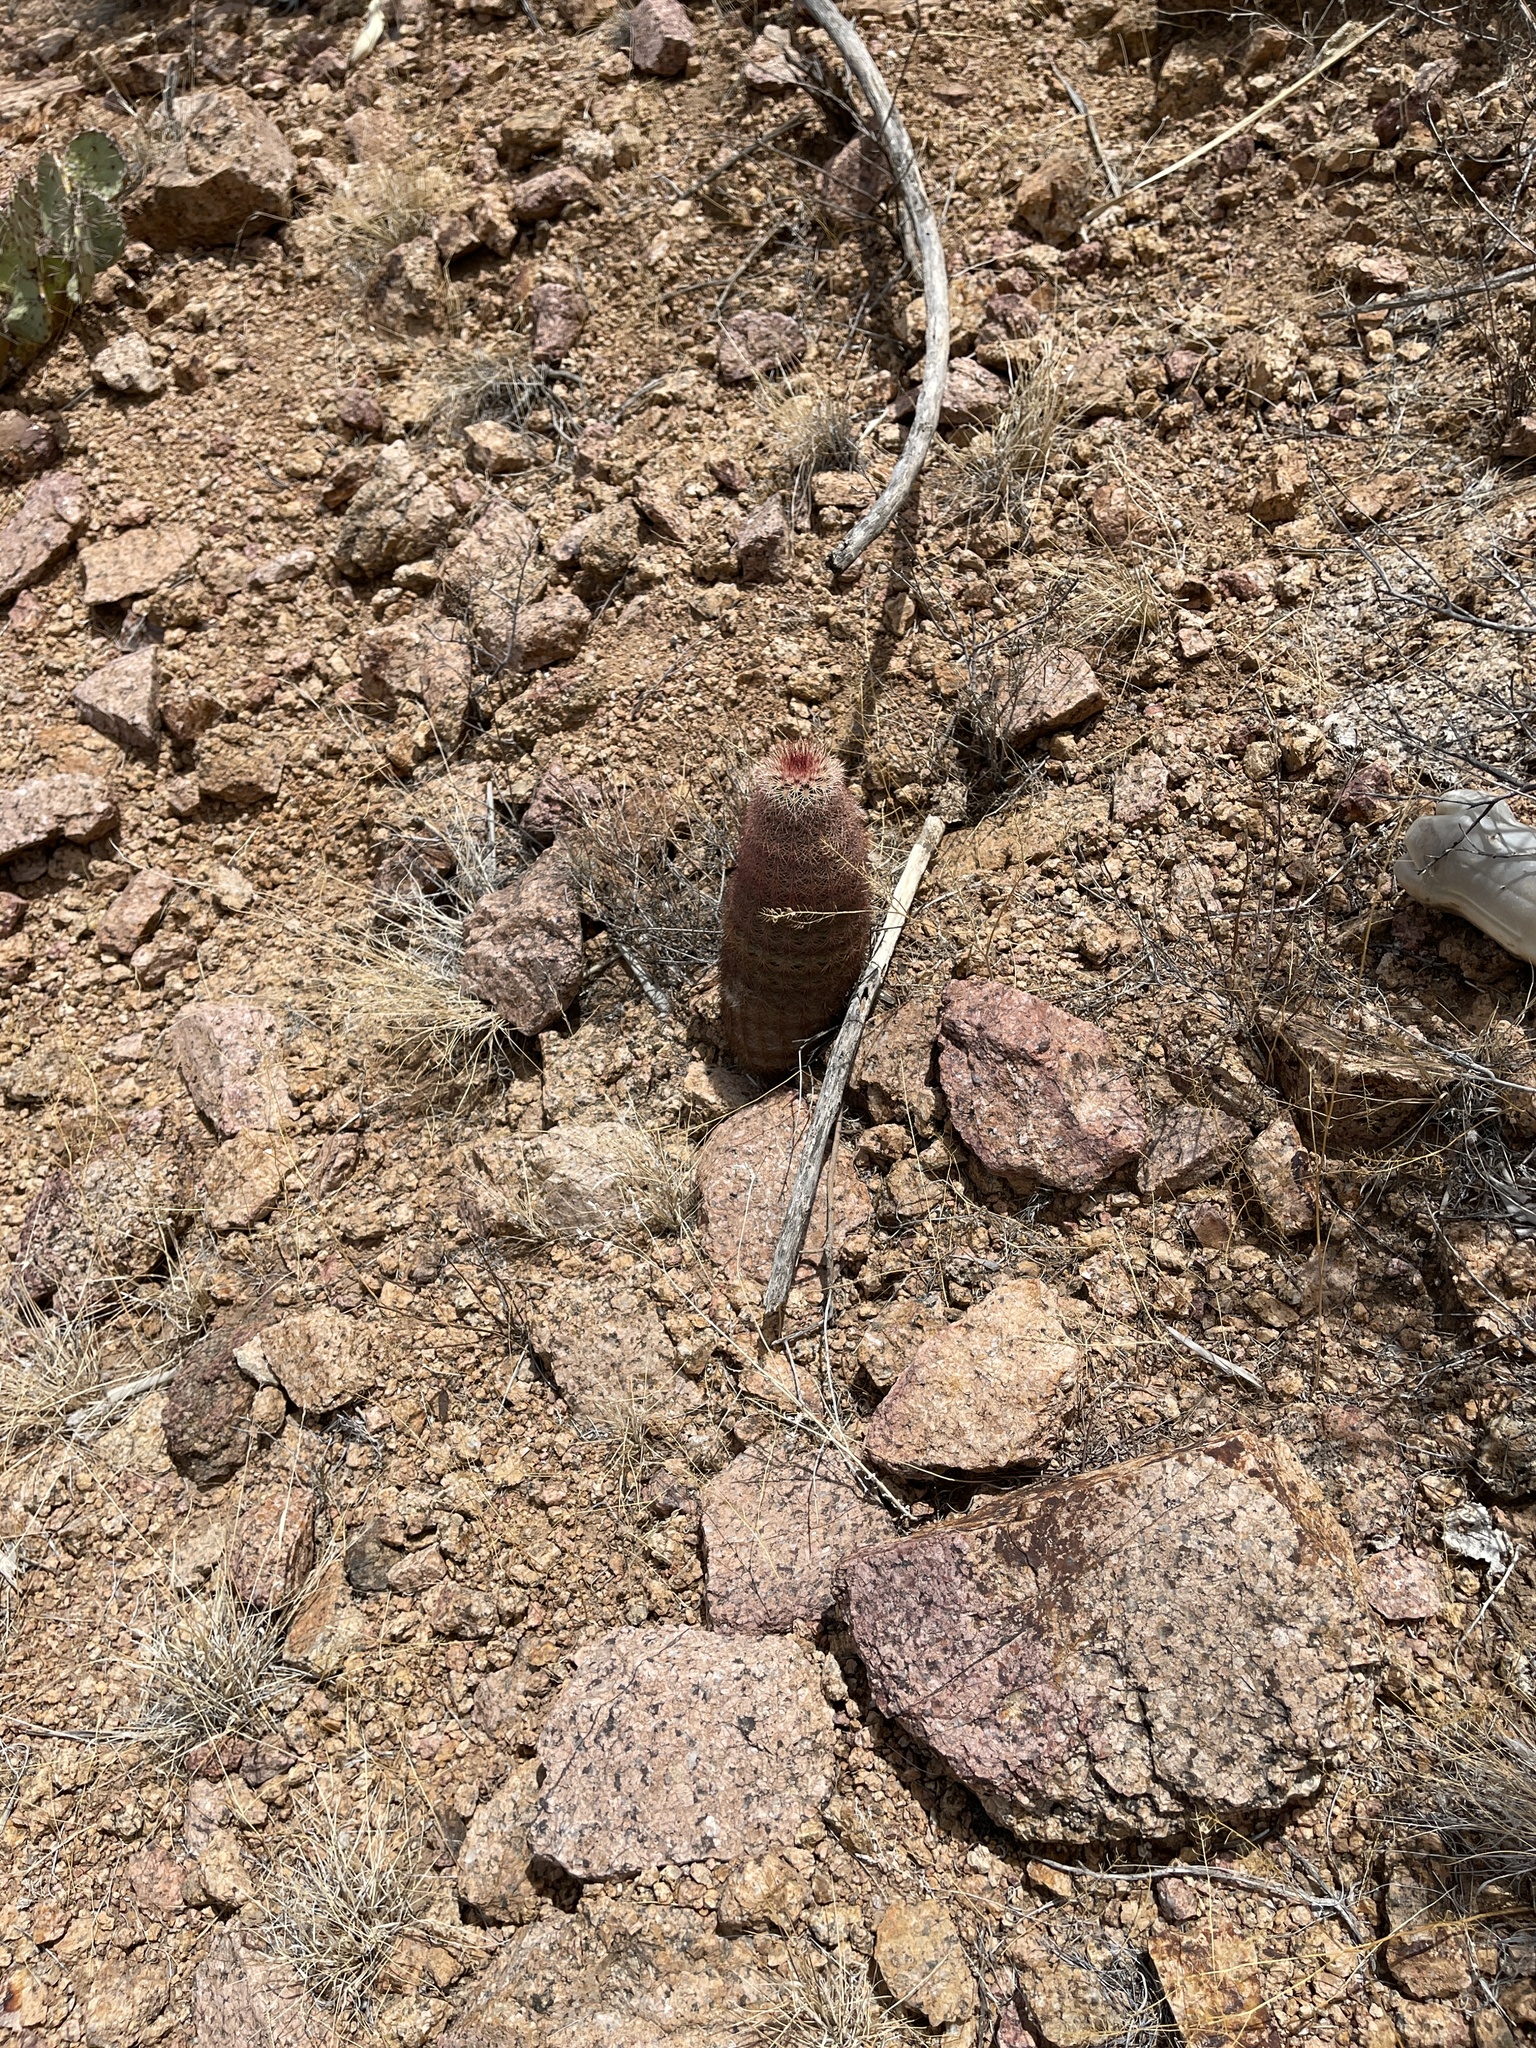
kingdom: Plantae
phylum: Tracheophyta
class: Magnoliopsida
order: Caryophyllales
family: Cactaceae
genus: Echinocereus
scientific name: Echinocereus dasyacanthus
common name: Spiny hedgehog cactus
